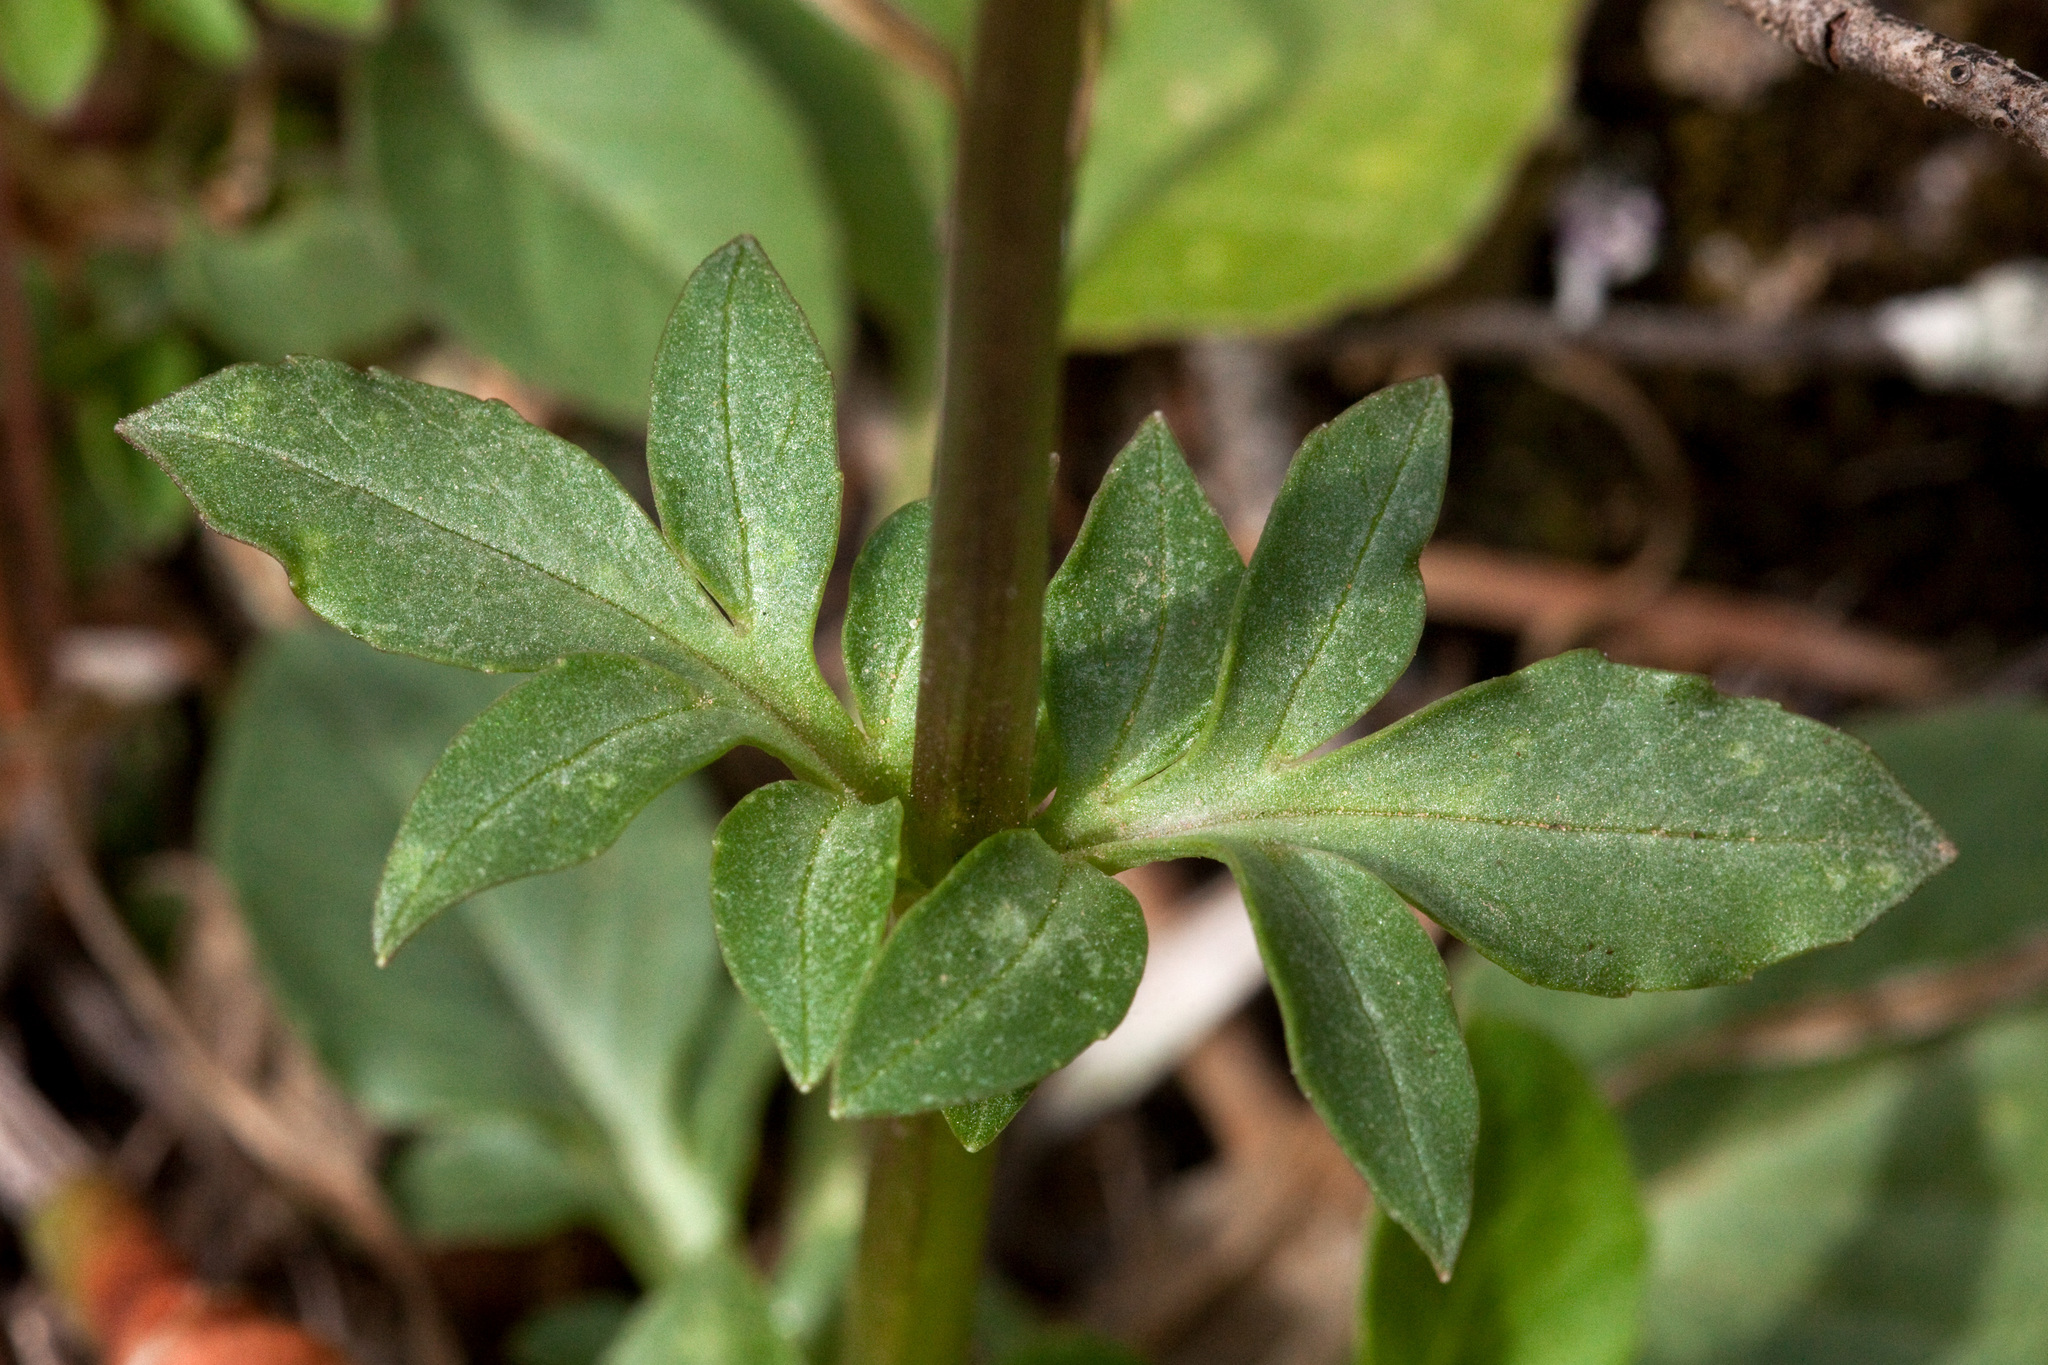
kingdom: Plantae
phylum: Tracheophyta
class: Magnoliopsida
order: Dipsacales
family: Caprifoliaceae
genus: Valeriana
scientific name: Valeriana arizonica
